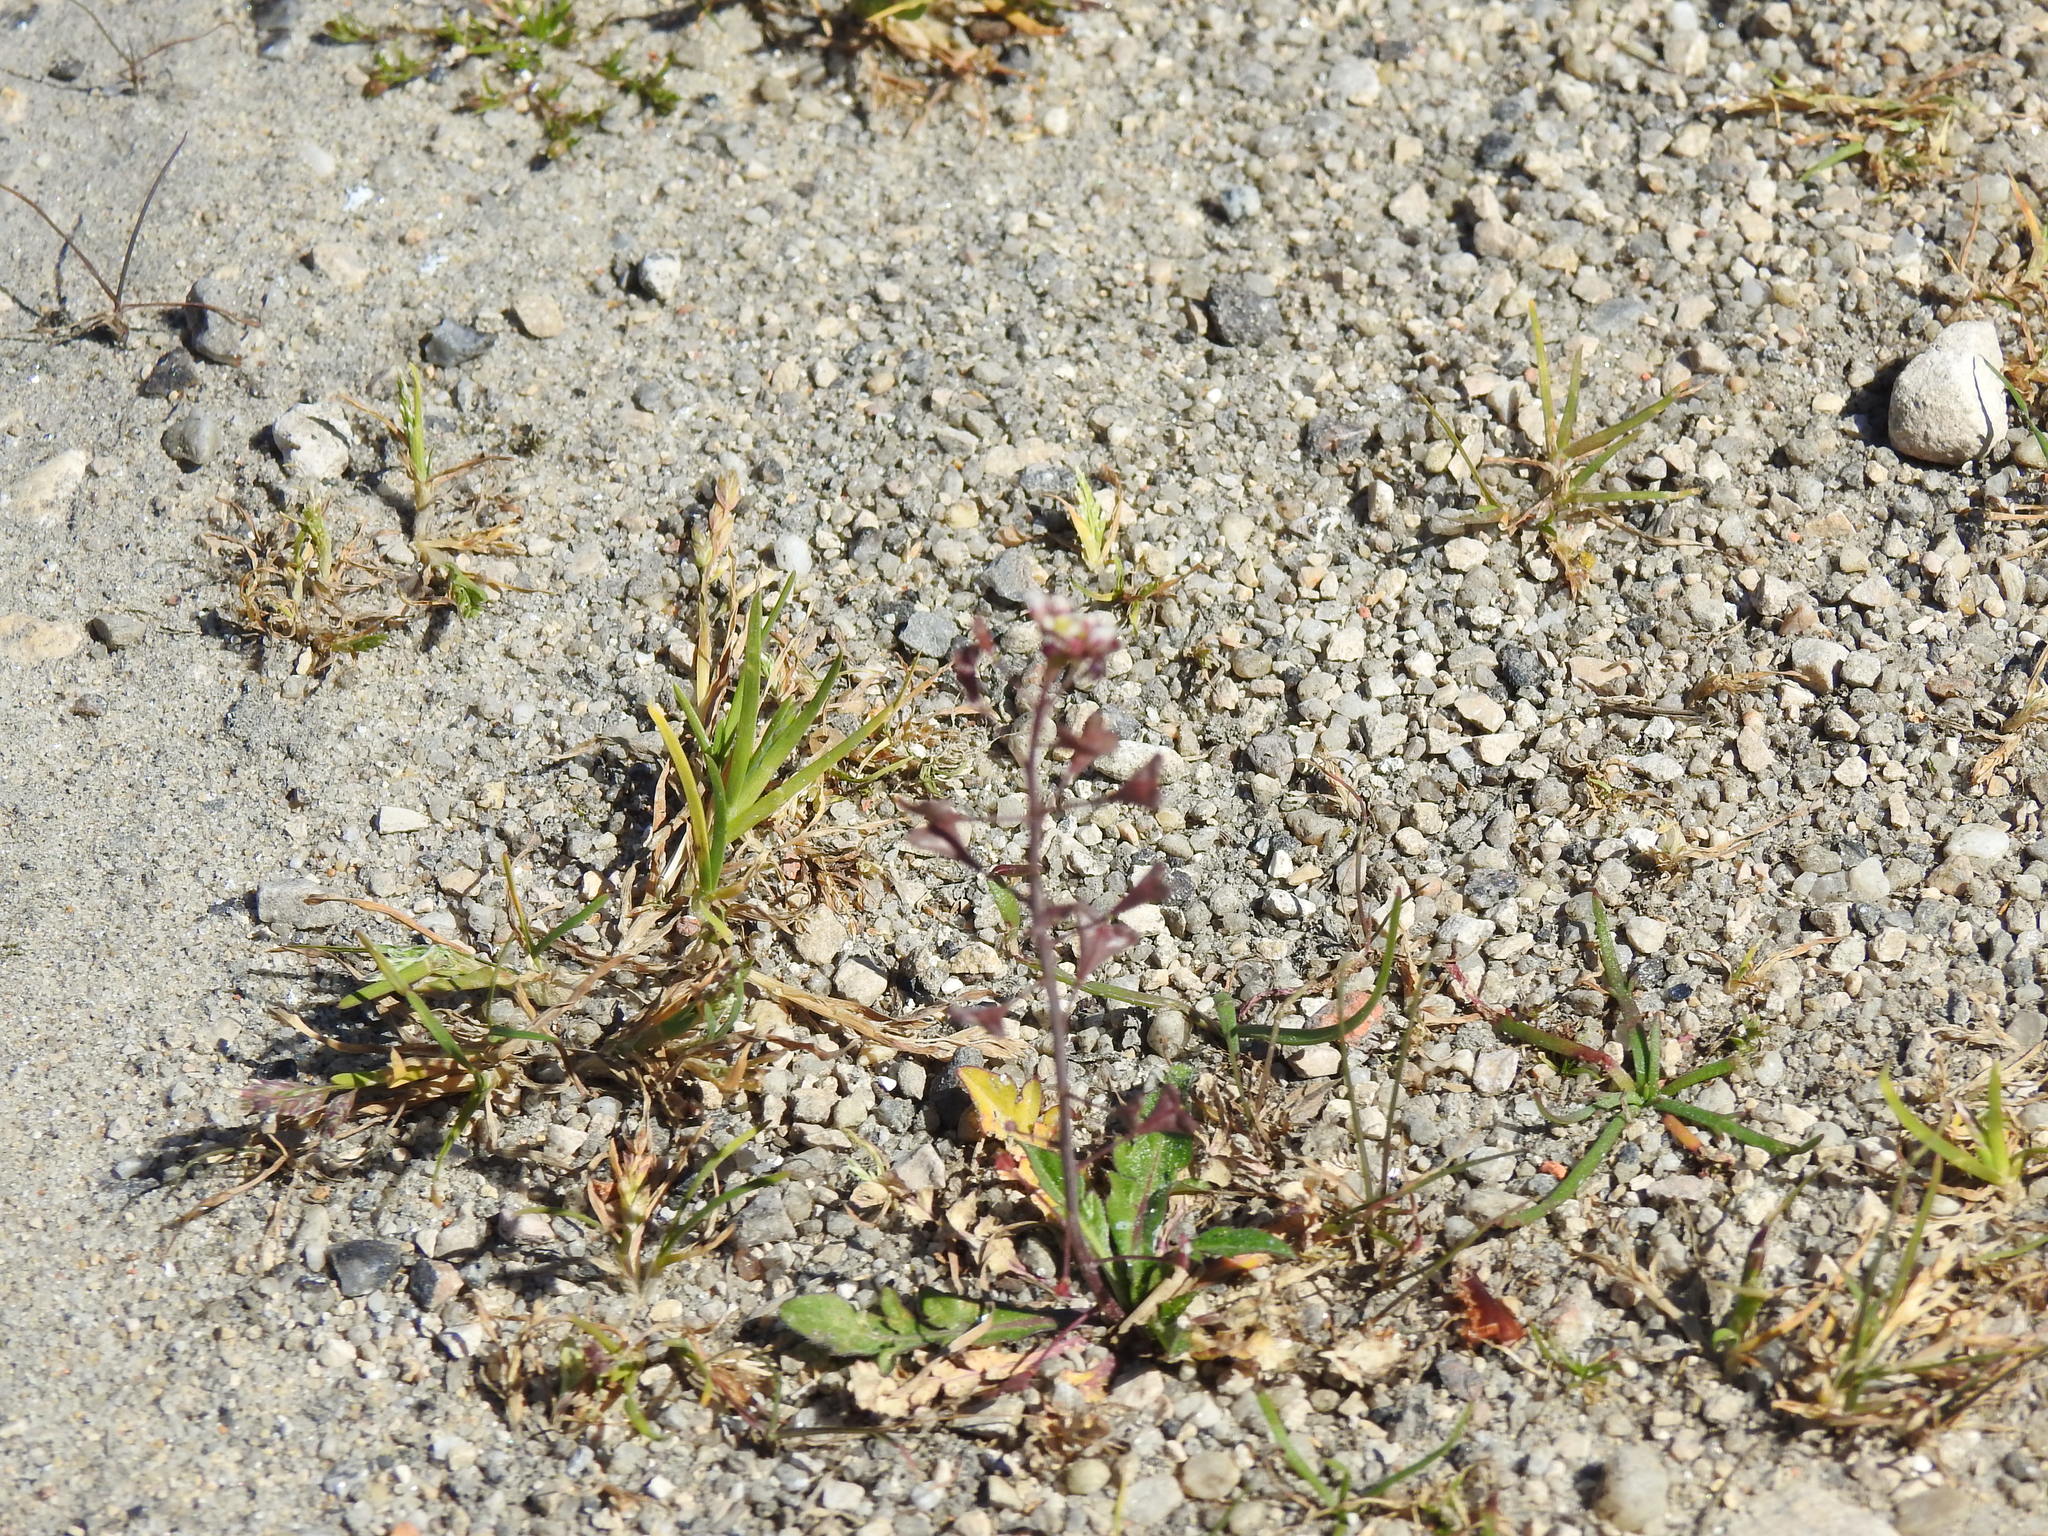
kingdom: Plantae
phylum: Tracheophyta
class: Magnoliopsida
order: Brassicales
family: Brassicaceae
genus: Capsella
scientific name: Capsella bursa-pastoris
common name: Shepherd's purse
